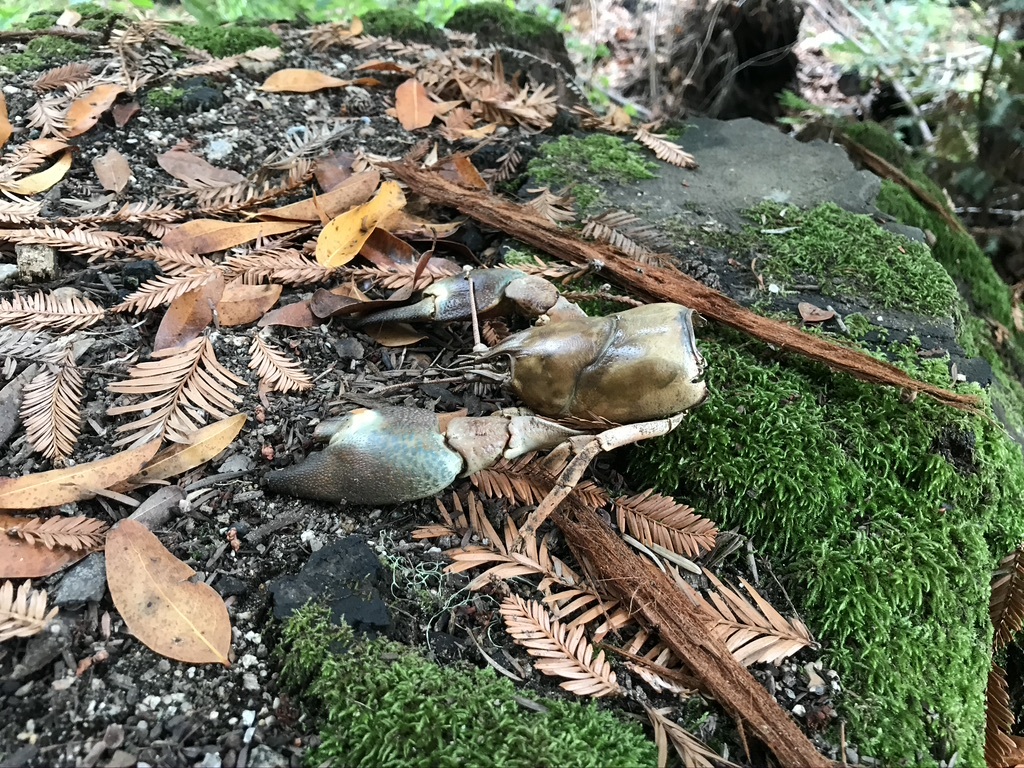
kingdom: Animalia
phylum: Arthropoda
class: Malacostraca
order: Decapoda
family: Astacidae
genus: Pacifastacus
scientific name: Pacifastacus leniusculus
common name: Signal crayfish
